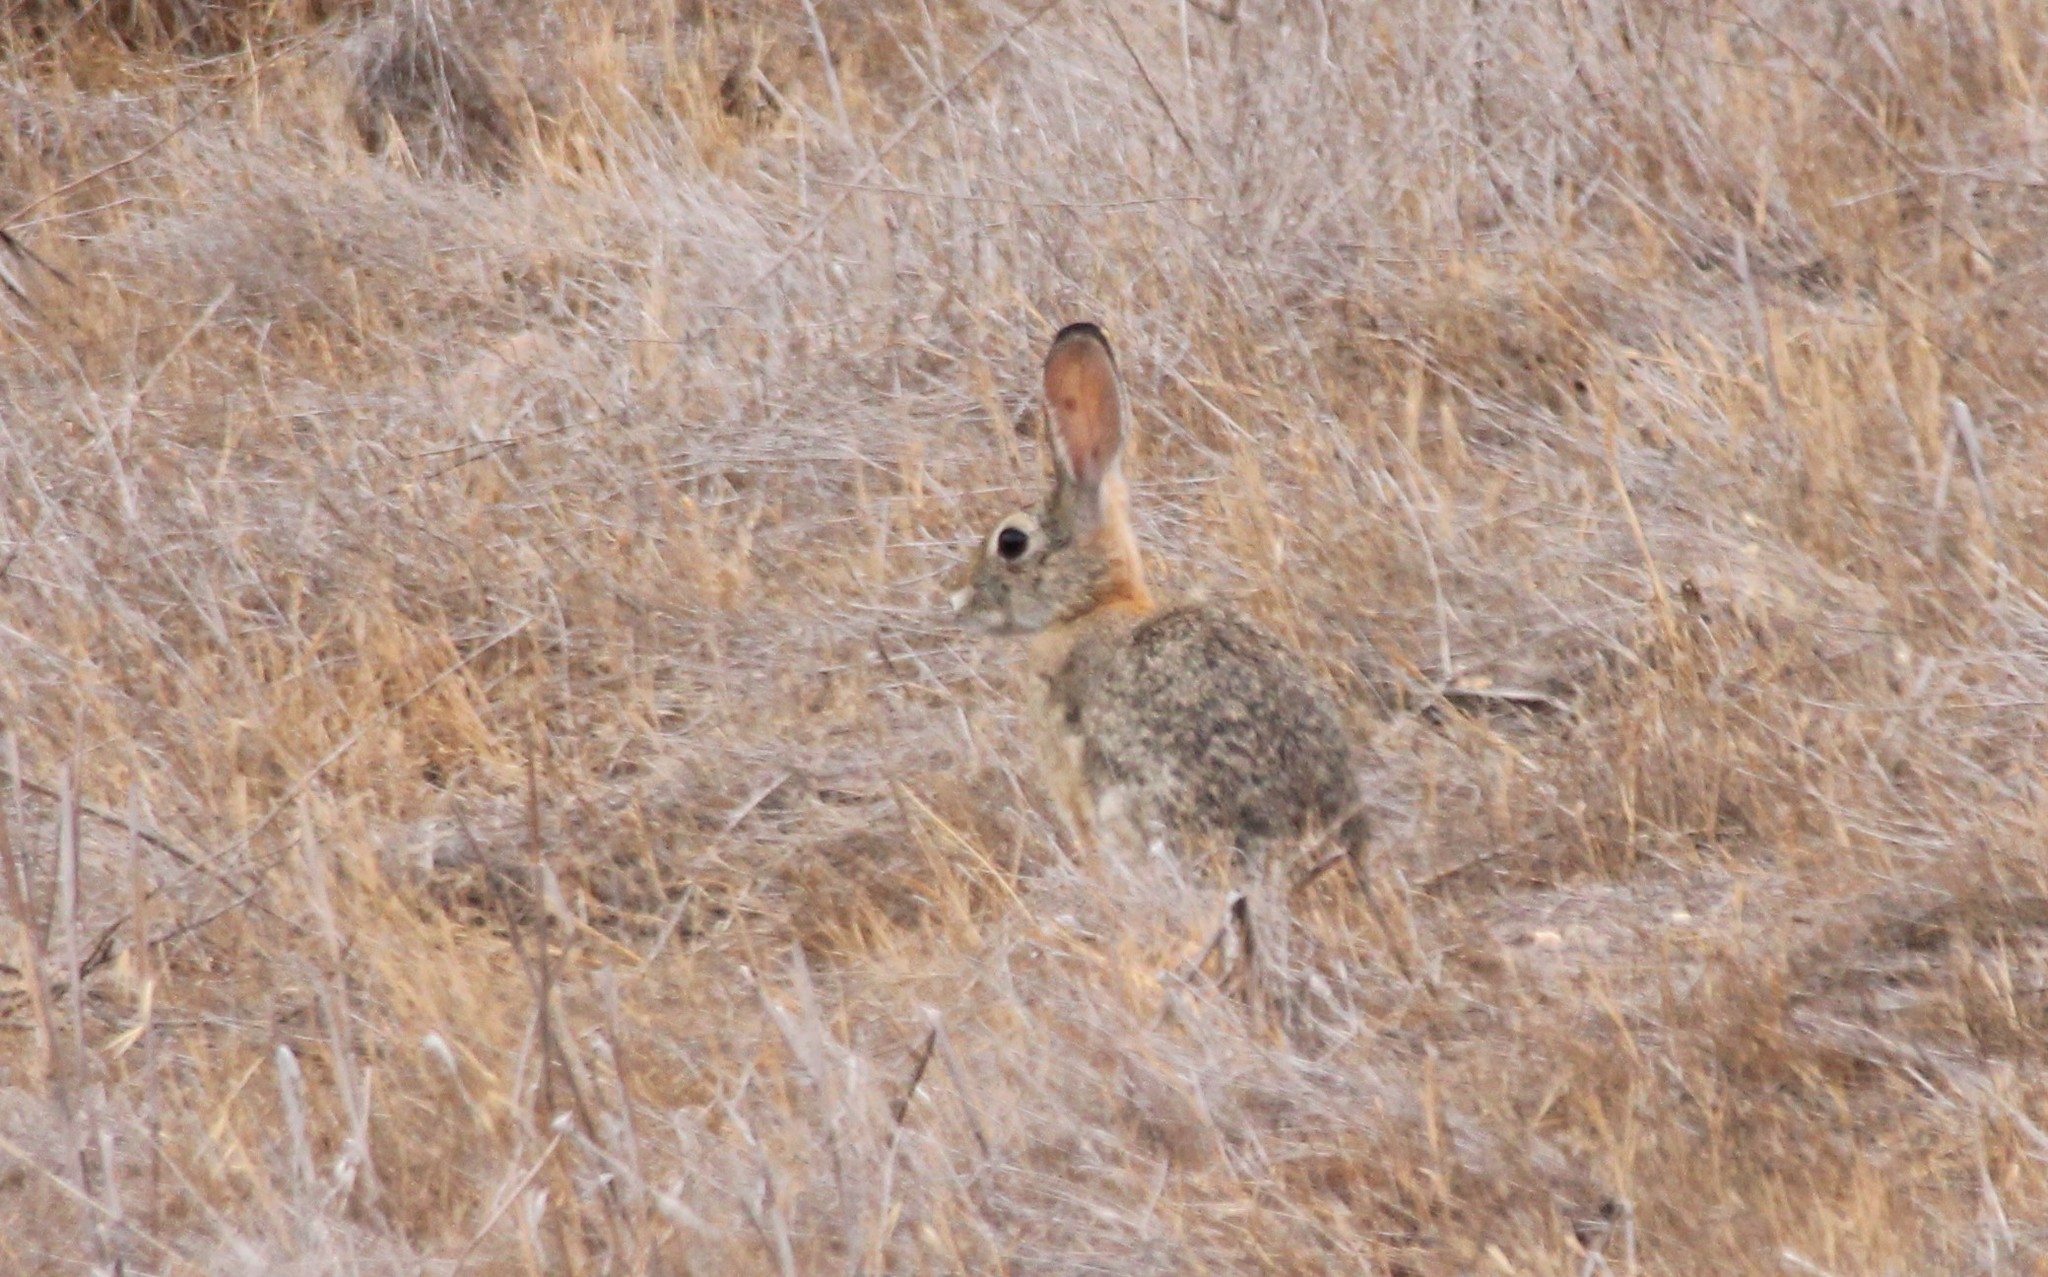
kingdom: Animalia
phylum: Chordata
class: Mammalia
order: Lagomorpha
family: Leporidae
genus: Sylvilagus
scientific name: Sylvilagus audubonii
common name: Desert cottontail
